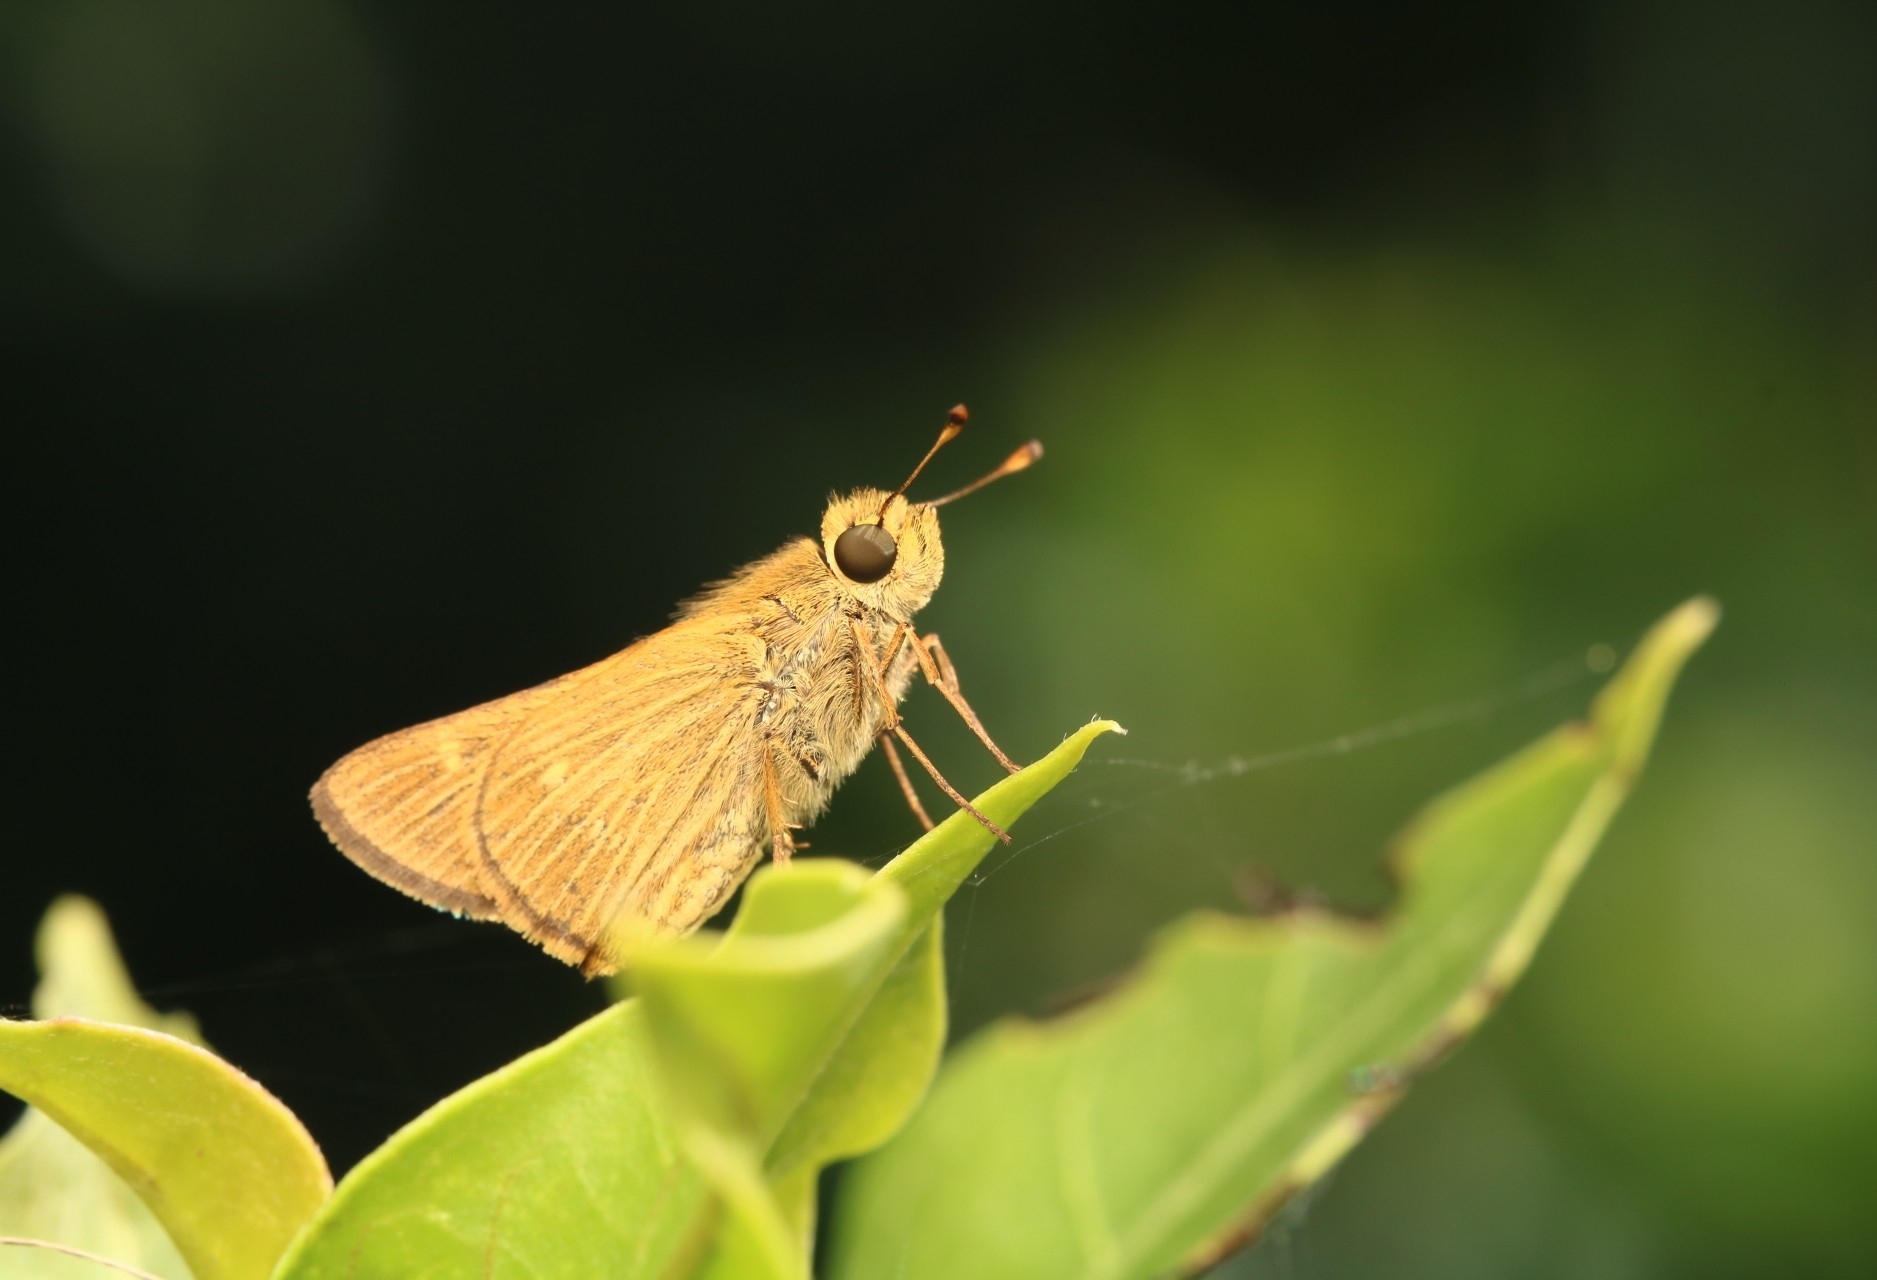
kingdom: Animalia
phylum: Arthropoda
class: Insecta
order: Lepidoptera
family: Hesperiidae
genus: Panoquina
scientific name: Panoquina panoquinoides
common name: Beach skipper
